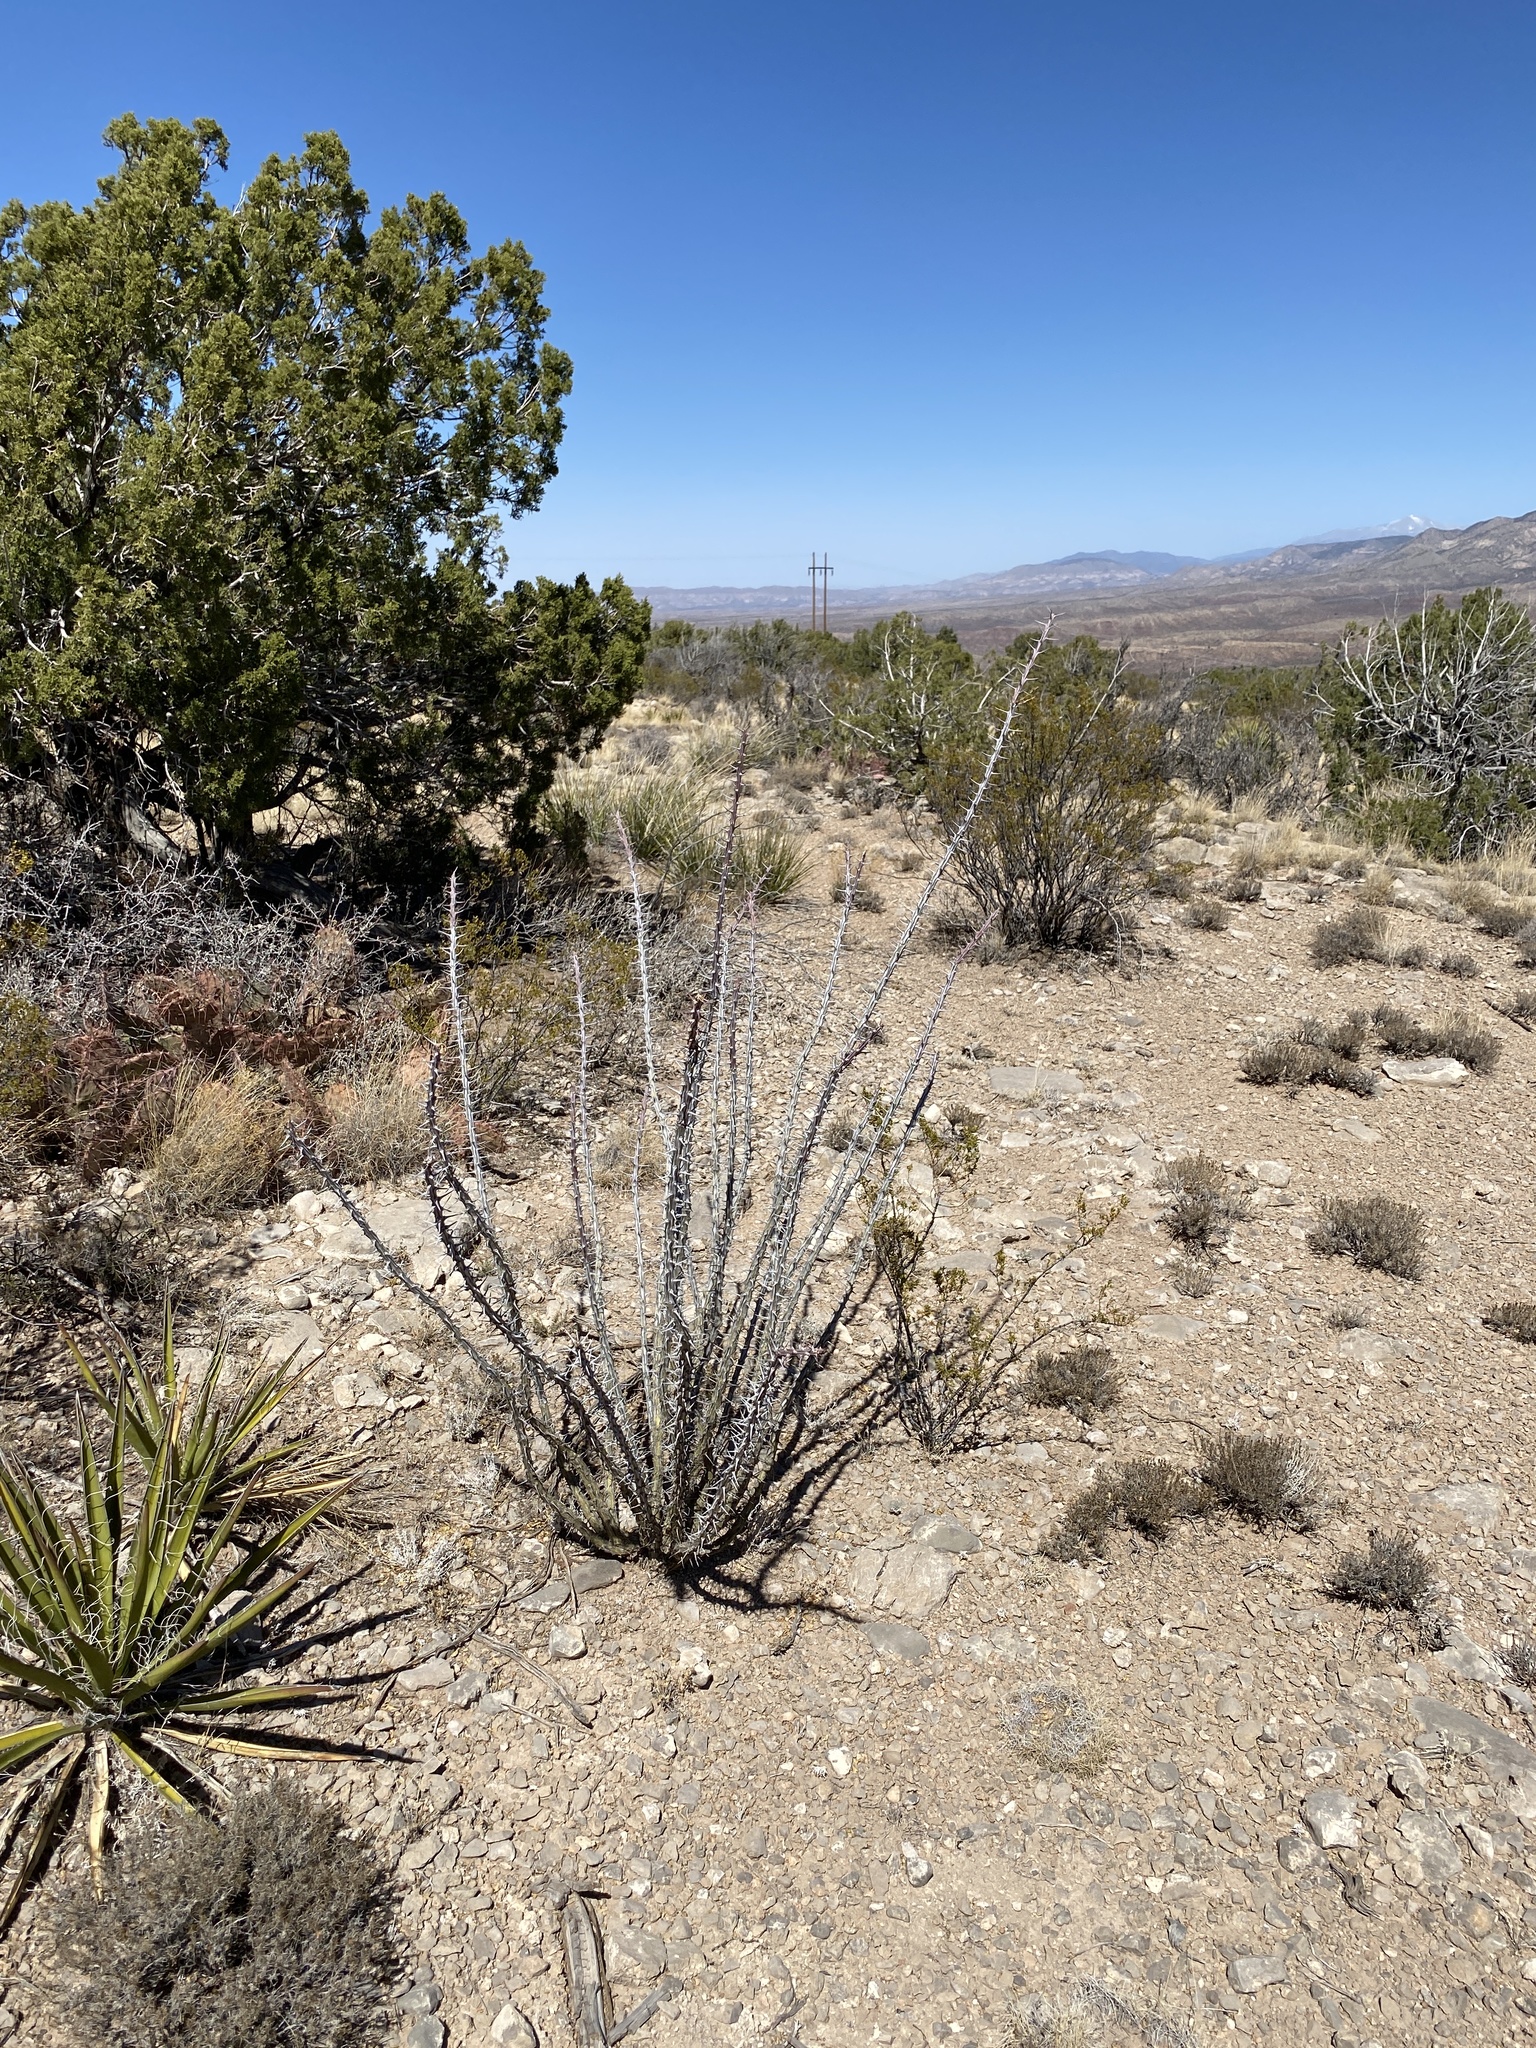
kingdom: Plantae
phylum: Tracheophyta
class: Magnoliopsida
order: Ericales
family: Fouquieriaceae
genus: Fouquieria
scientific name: Fouquieria splendens
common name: Vine-cactus
